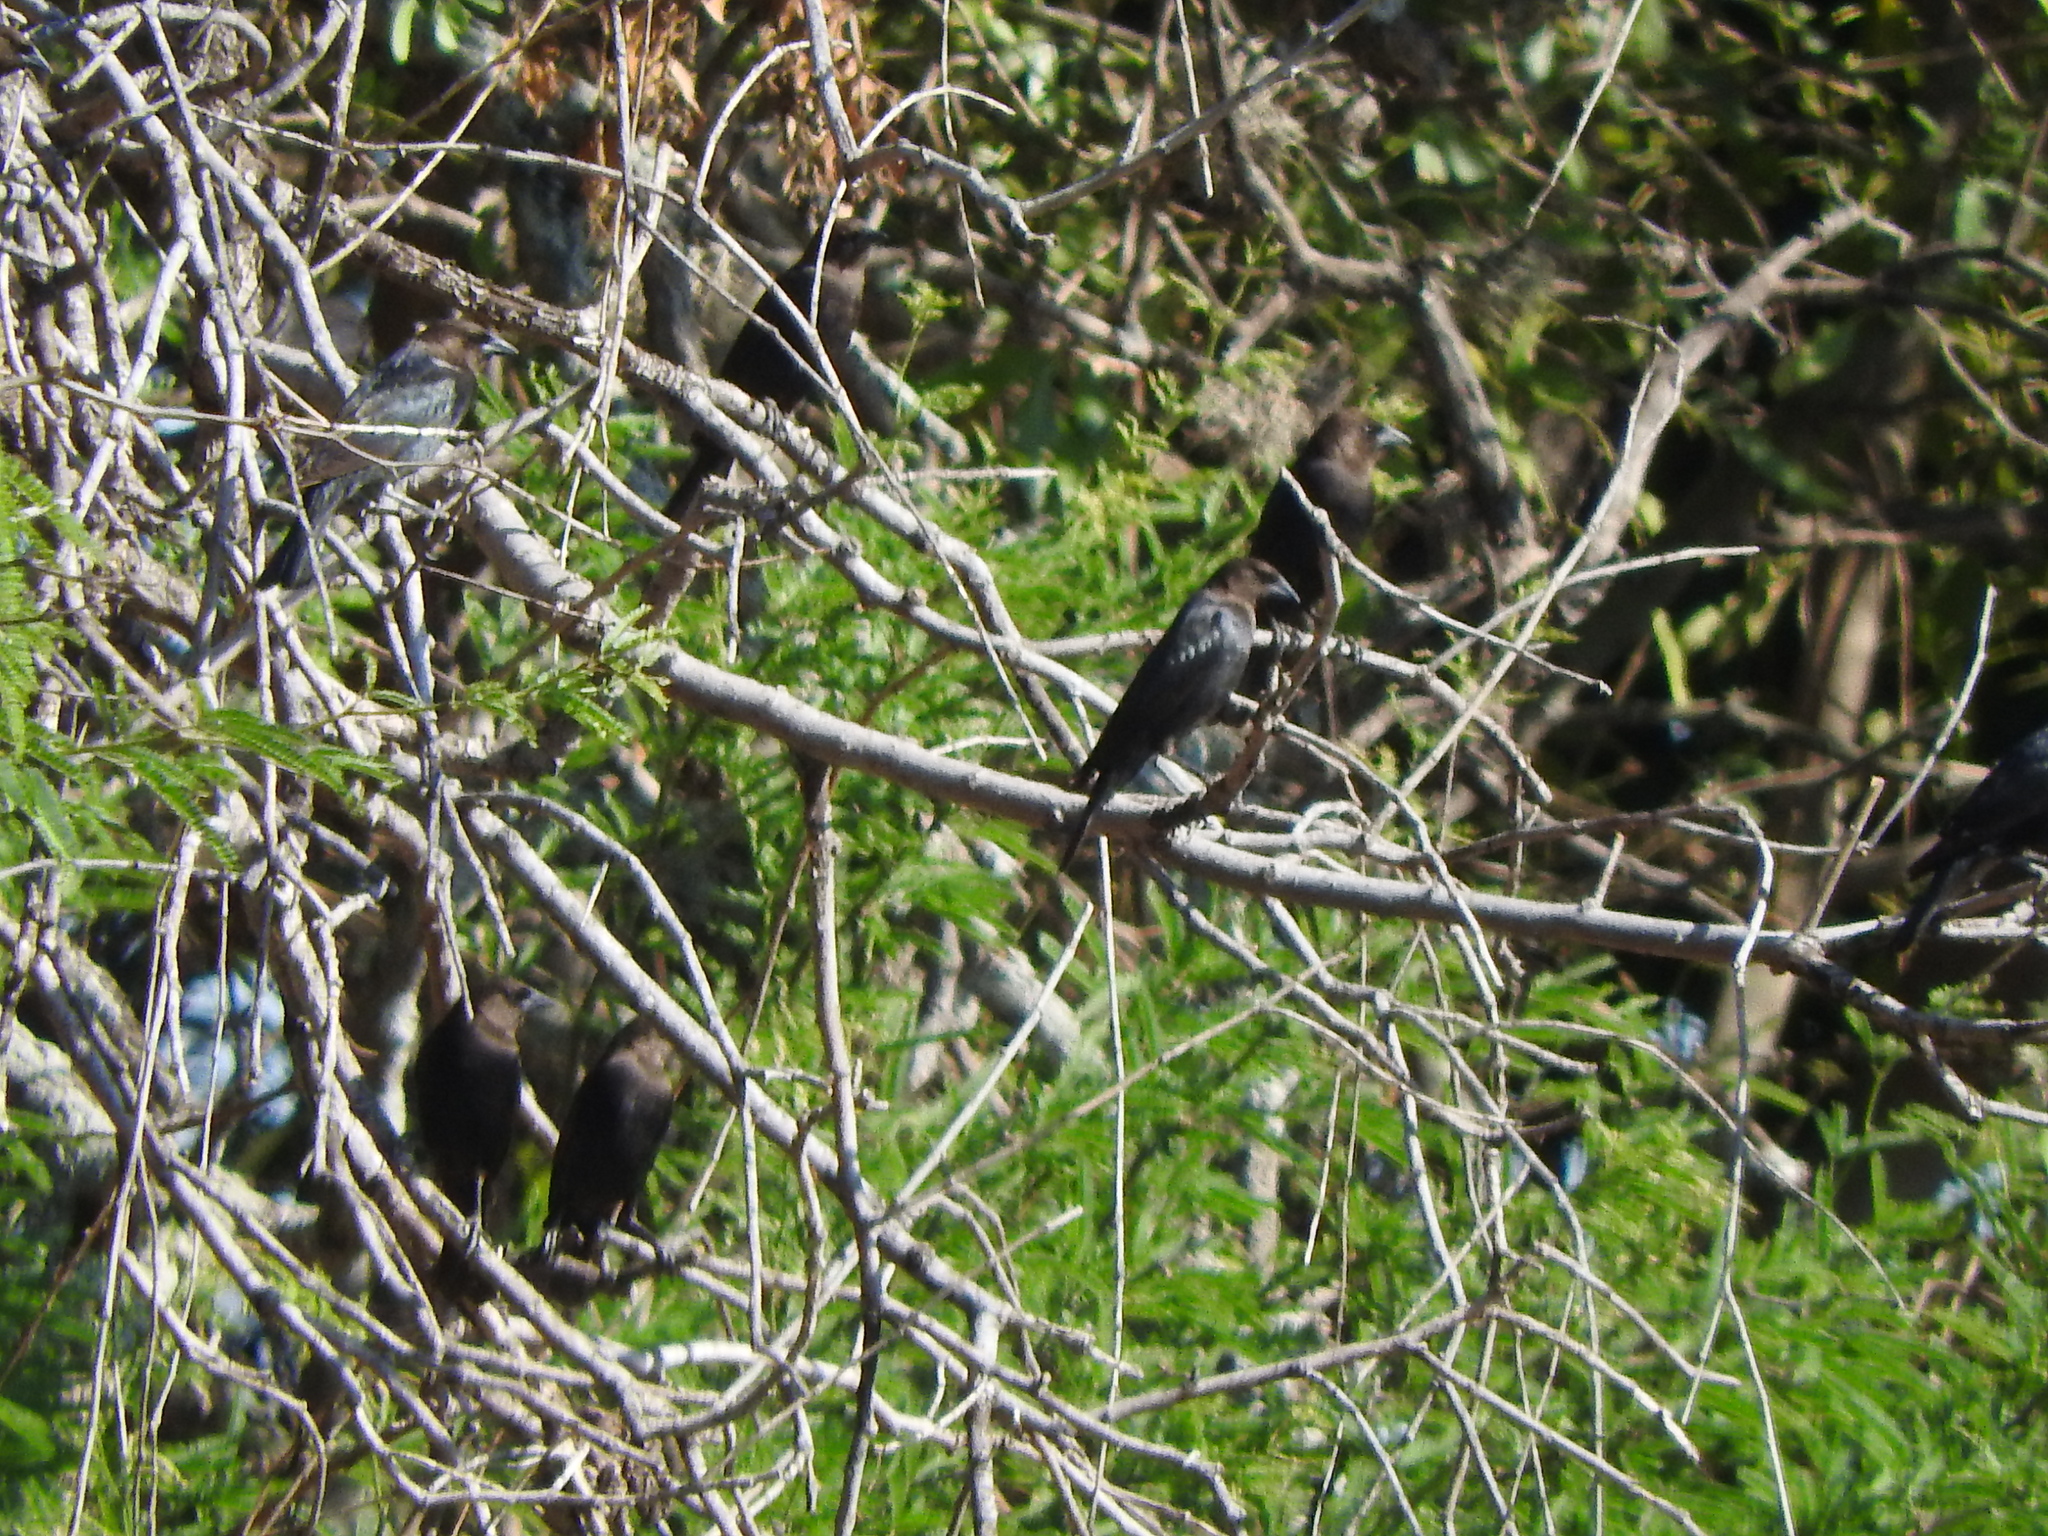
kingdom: Animalia
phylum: Chordata
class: Aves
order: Passeriformes
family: Icteridae
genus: Molothrus
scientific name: Molothrus ater
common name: Brown-headed cowbird
